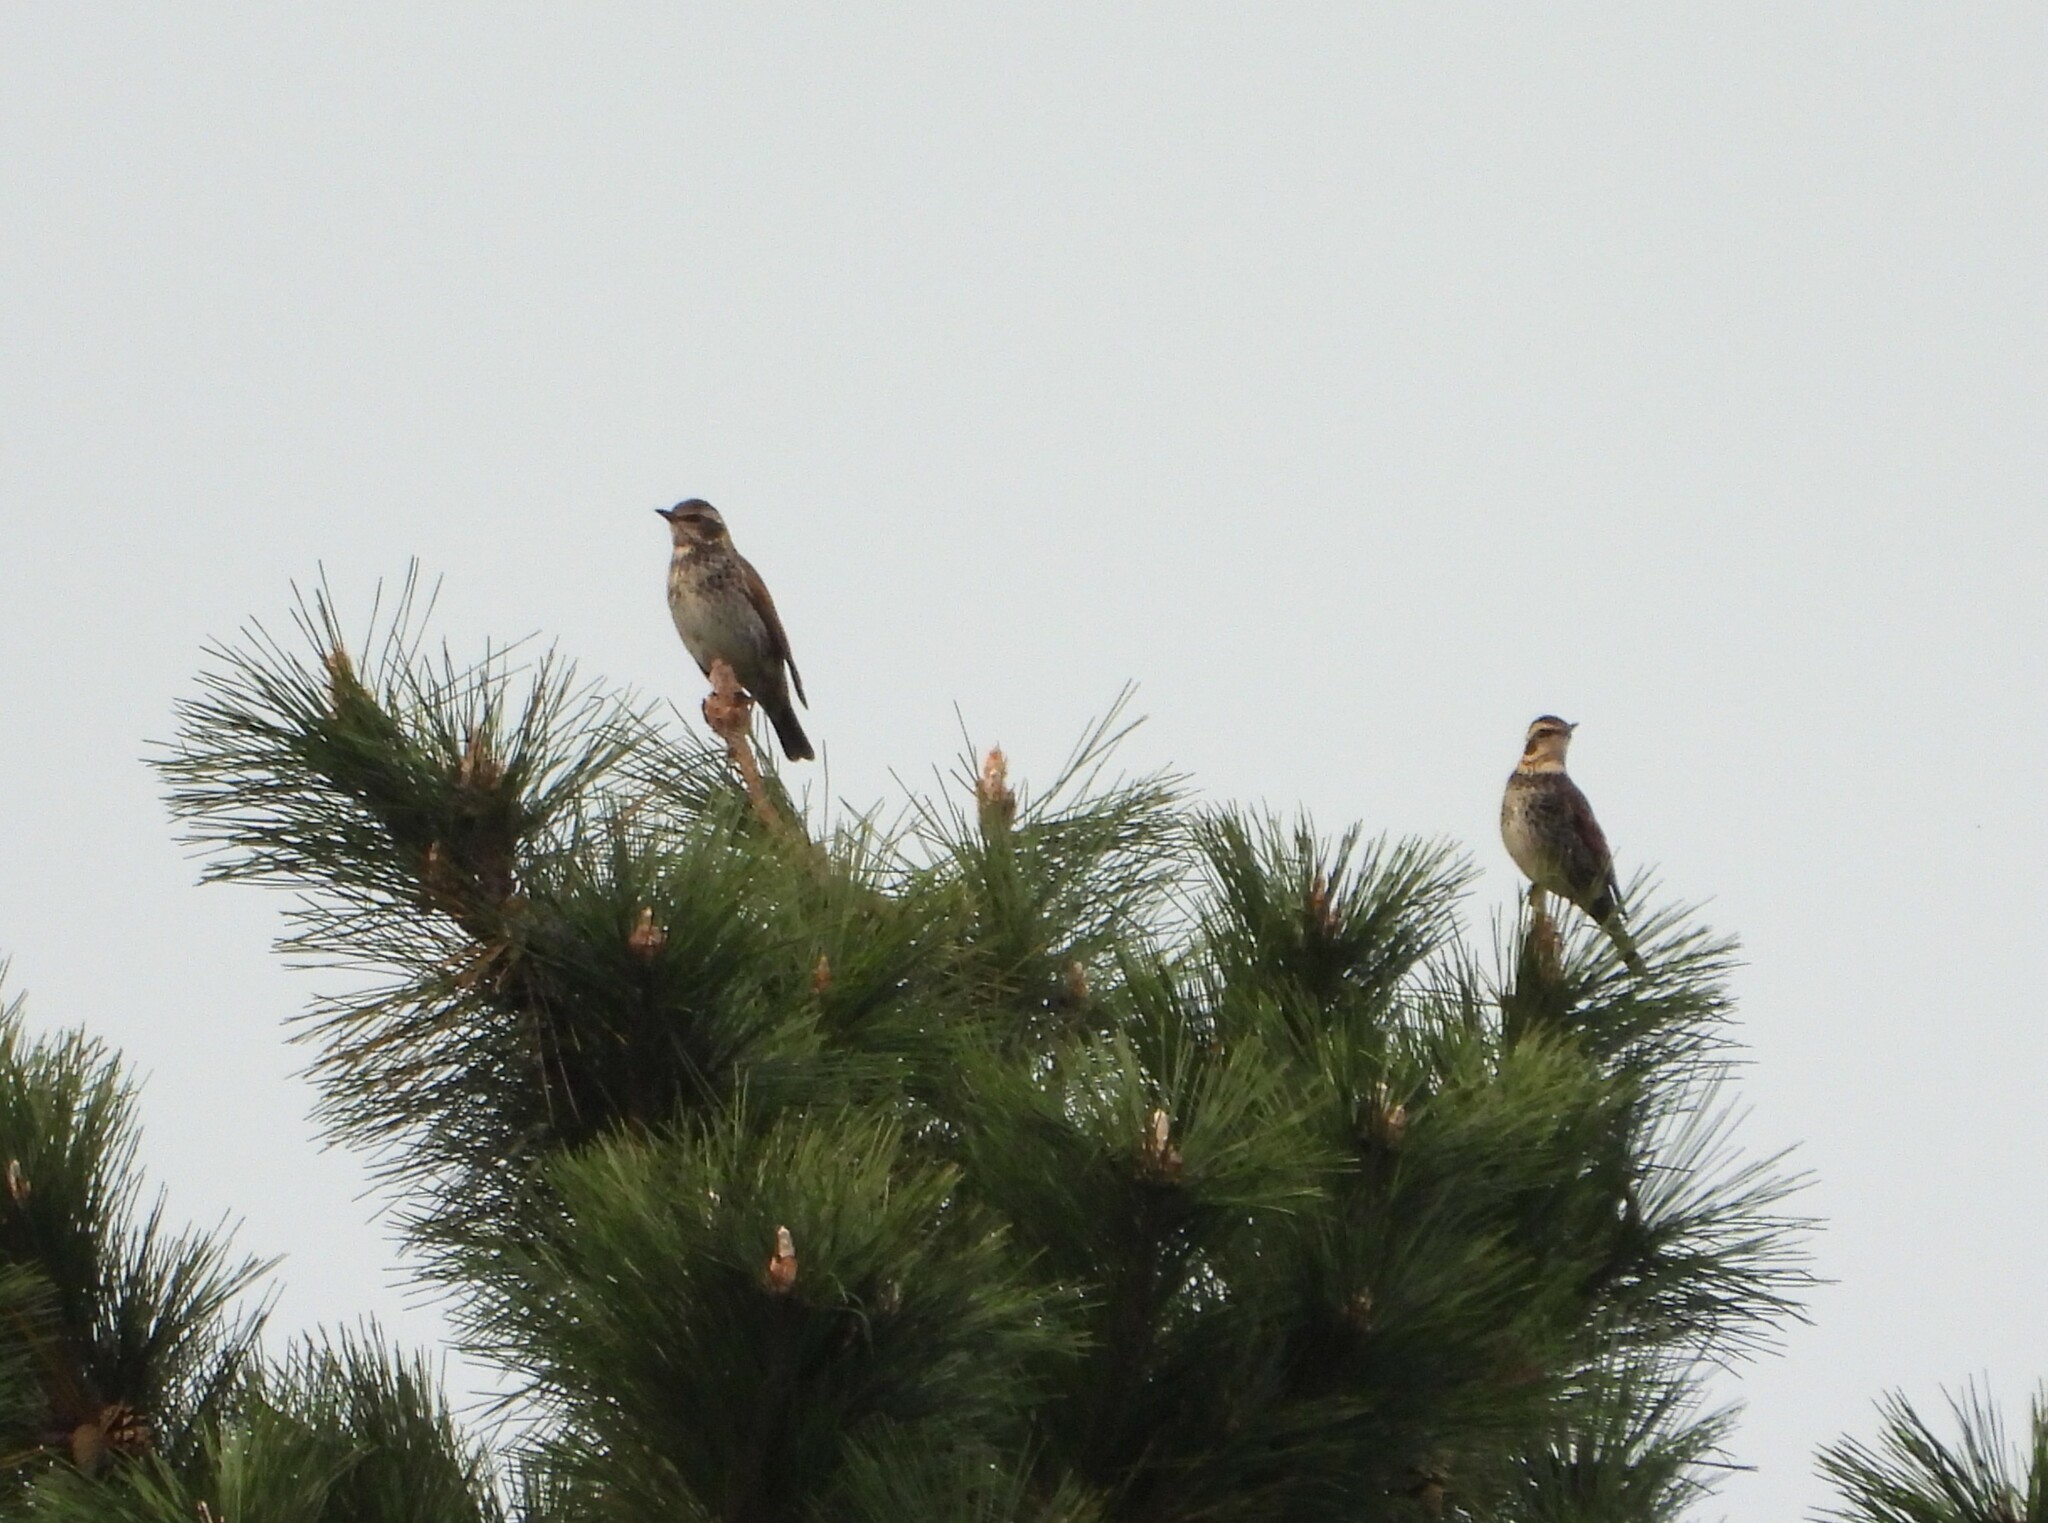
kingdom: Animalia
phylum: Chordata
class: Aves
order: Passeriformes
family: Turdidae
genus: Turdus
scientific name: Turdus eunomus
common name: Dusky thrush
